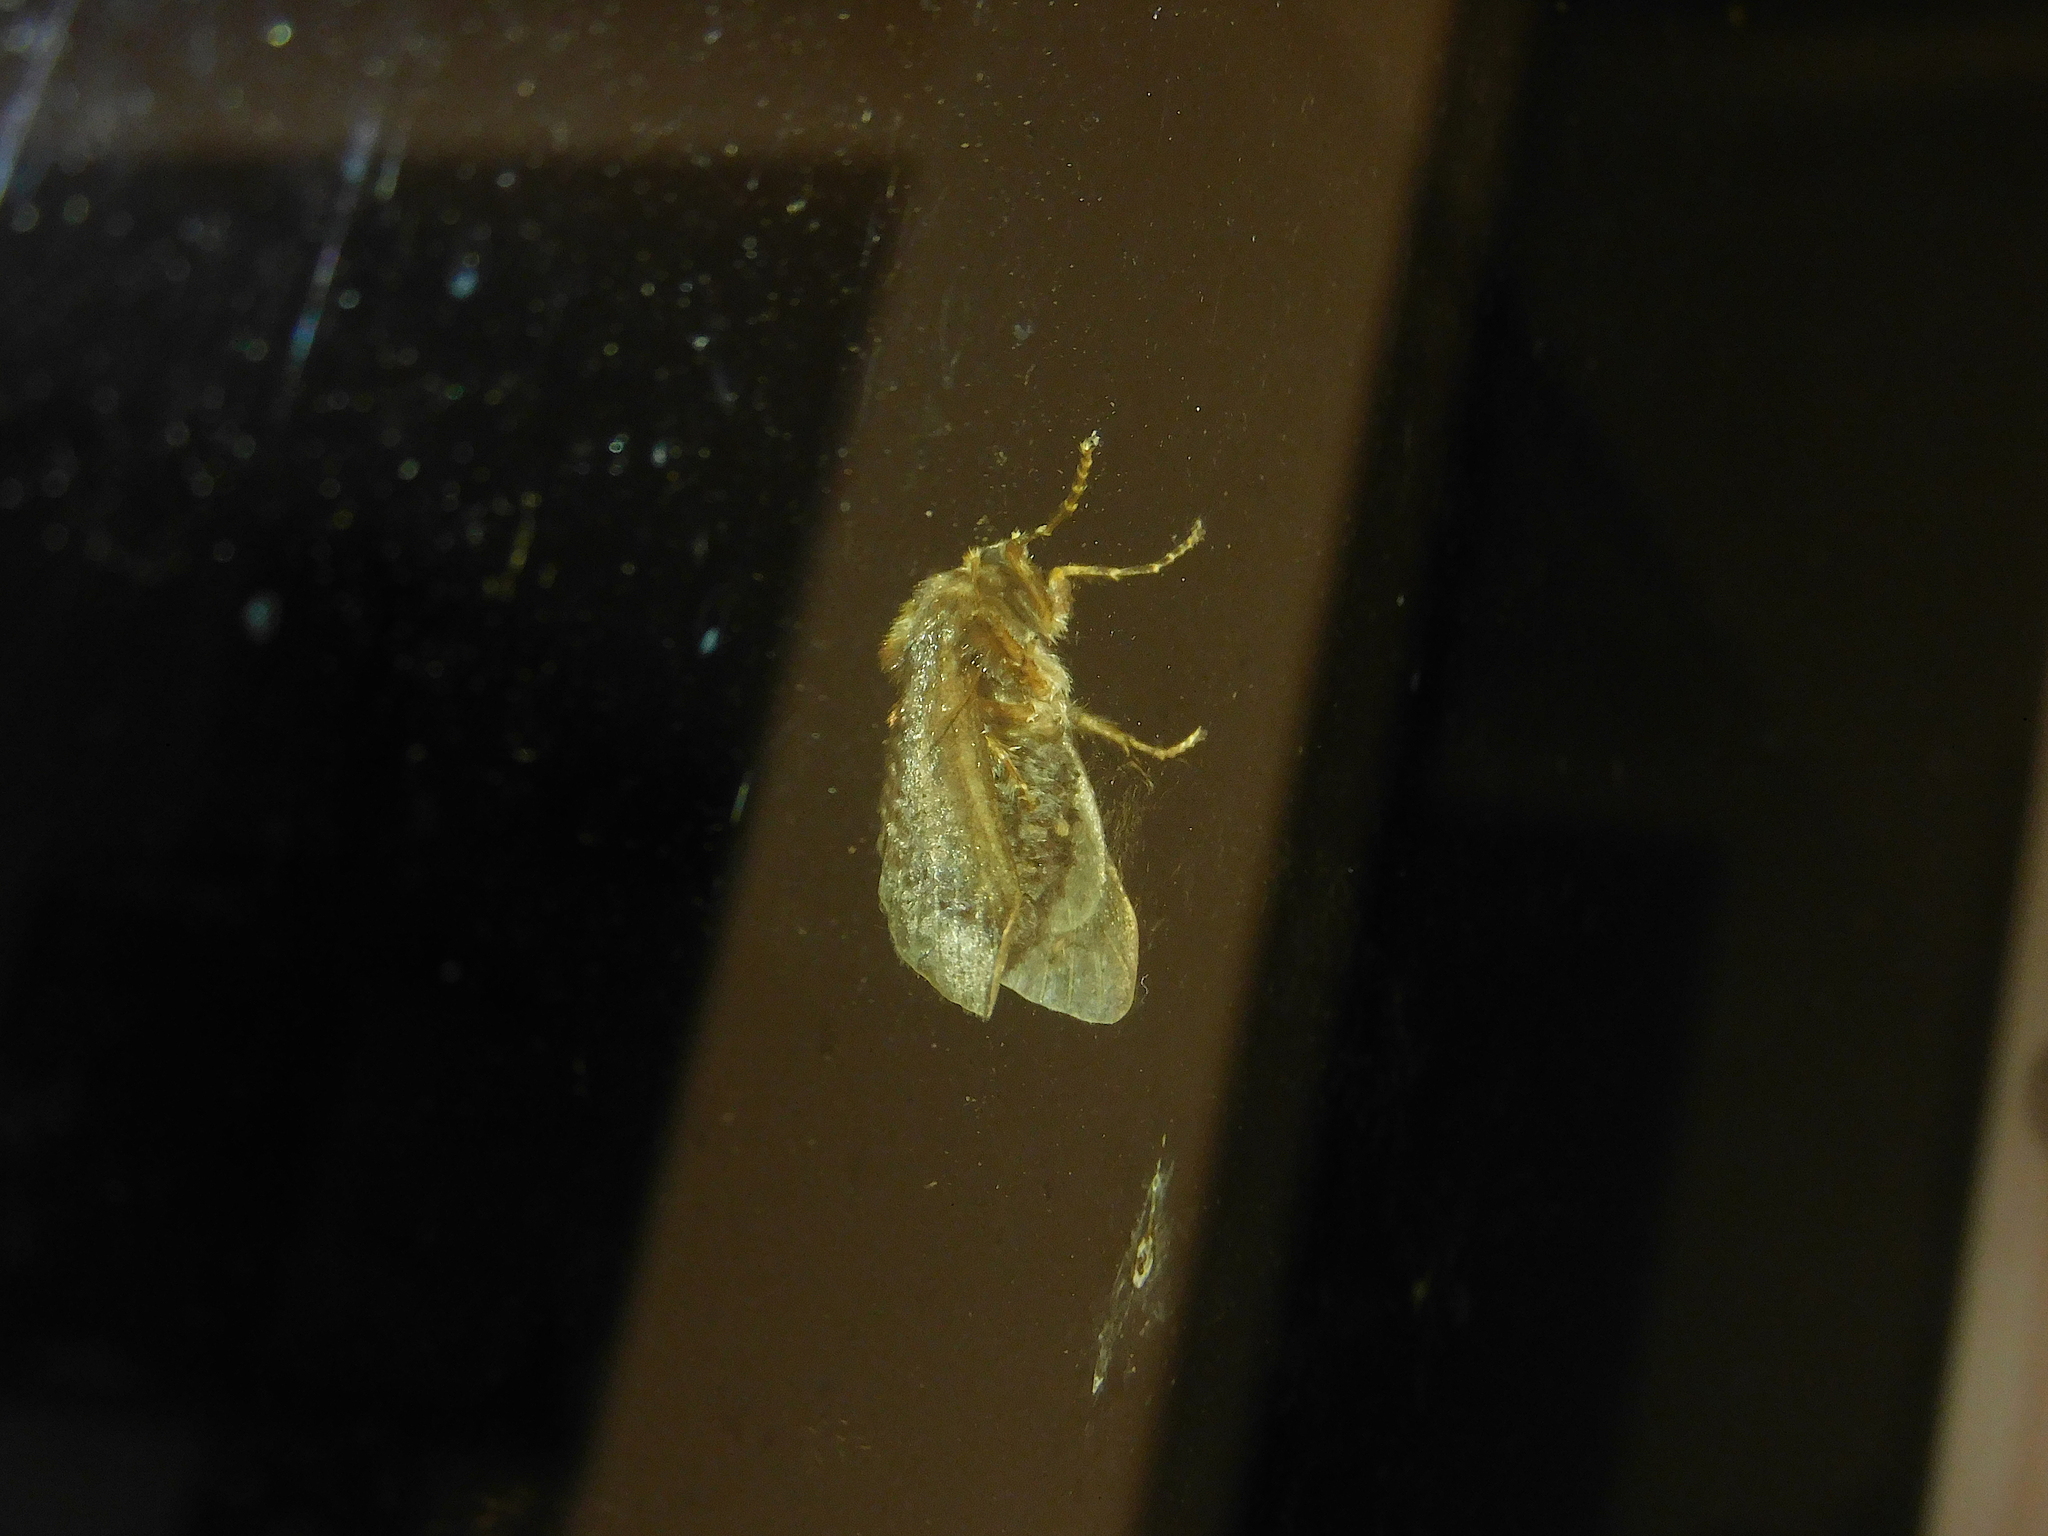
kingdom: Animalia
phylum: Arthropoda
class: Insecta
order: Lepidoptera
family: Limacodidae
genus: Doratifera
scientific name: Doratifera oxleyi
